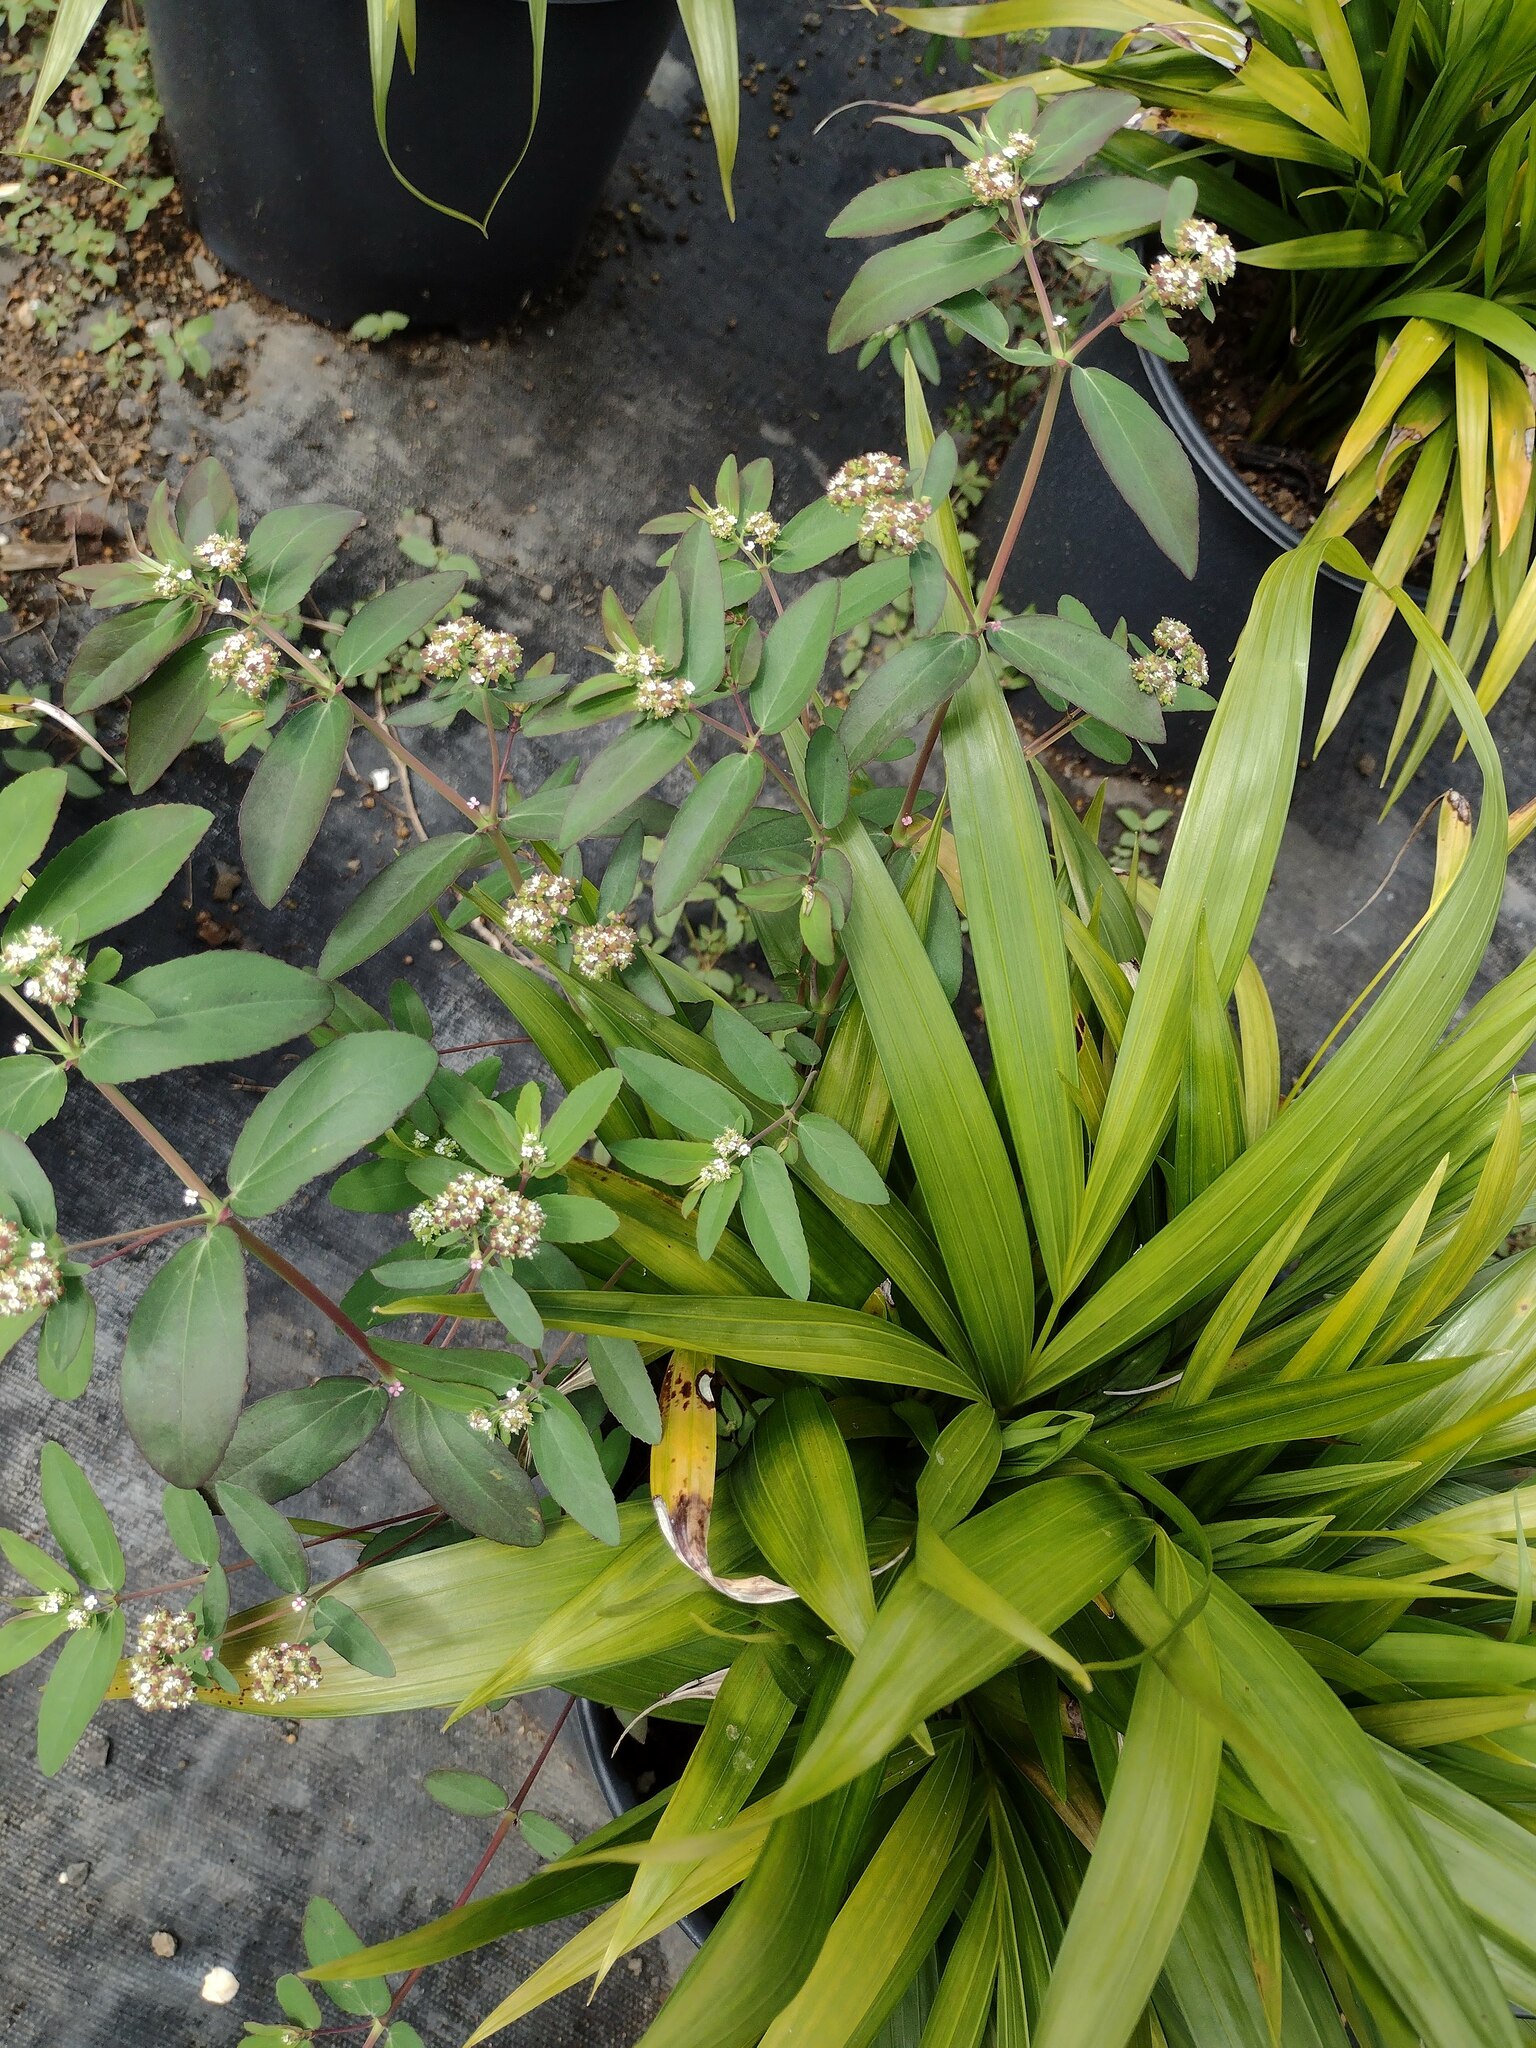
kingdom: Plantae
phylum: Tracheophyta
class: Magnoliopsida
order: Malpighiales
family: Euphorbiaceae
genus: Euphorbia
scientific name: Euphorbia hypericifolia
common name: Graceful sandmat
